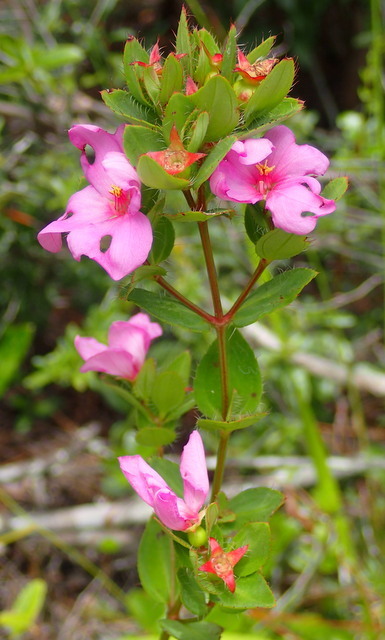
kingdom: Plantae
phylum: Tracheophyta
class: Magnoliopsida
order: Myrtales
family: Melastomataceae
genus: Rhexia
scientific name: Rhexia petiolata
